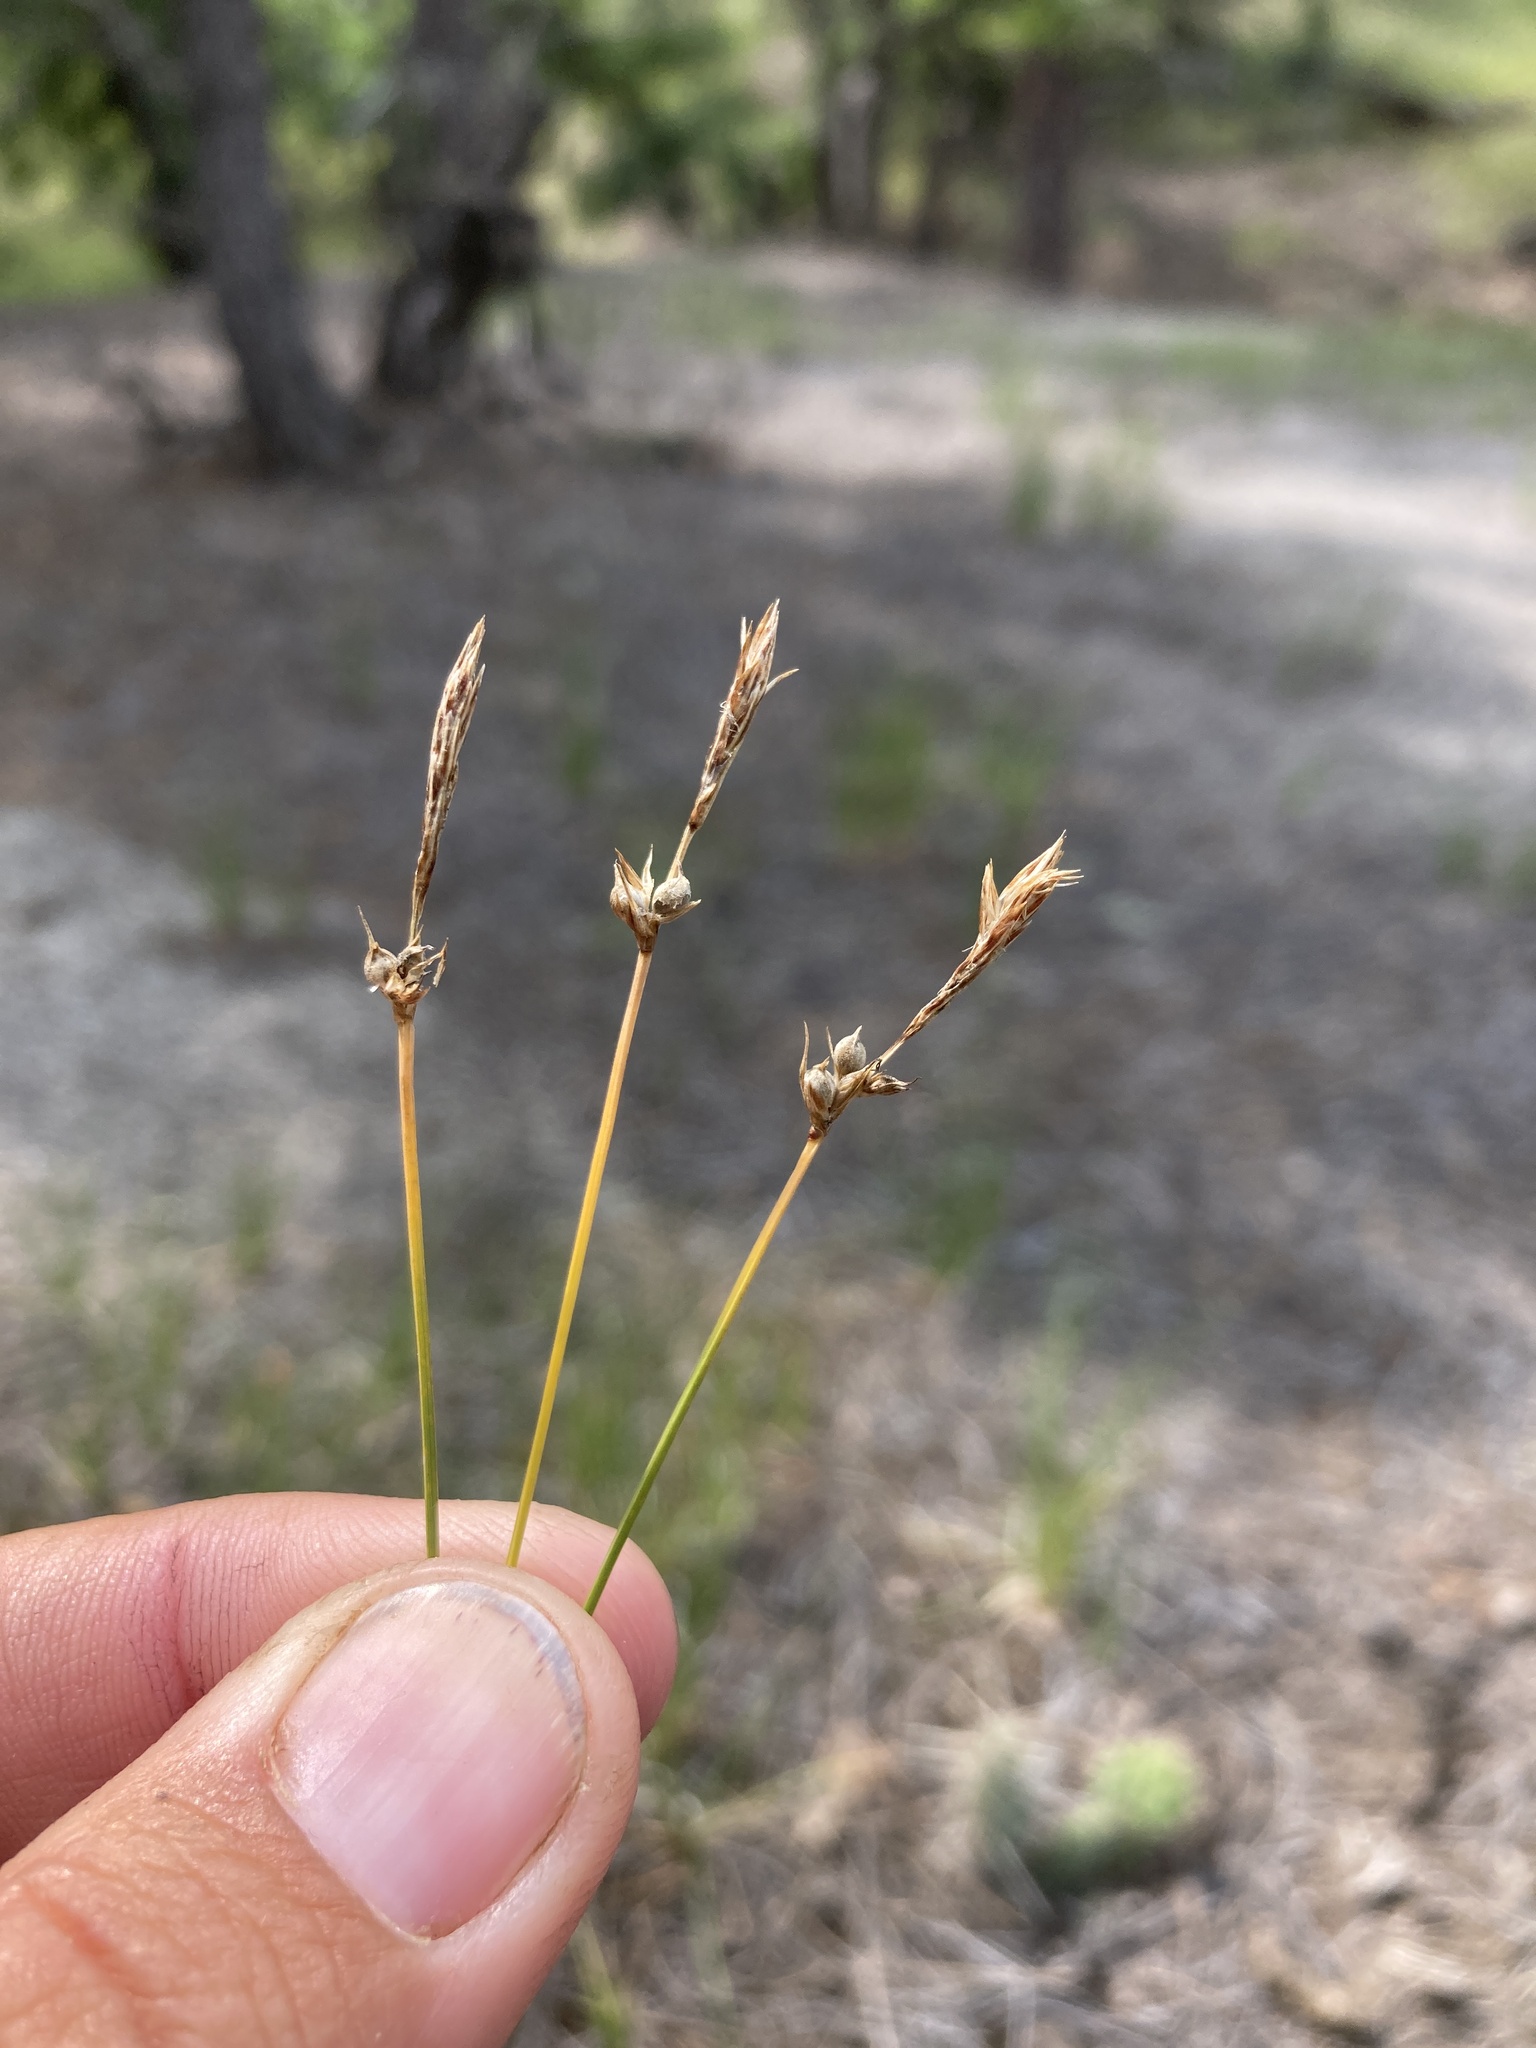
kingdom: Plantae
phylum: Tracheophyta
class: Liliopsida
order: Poales
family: Cyperaceae
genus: Carex
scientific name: Carex inops
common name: Long-stolon sedge
